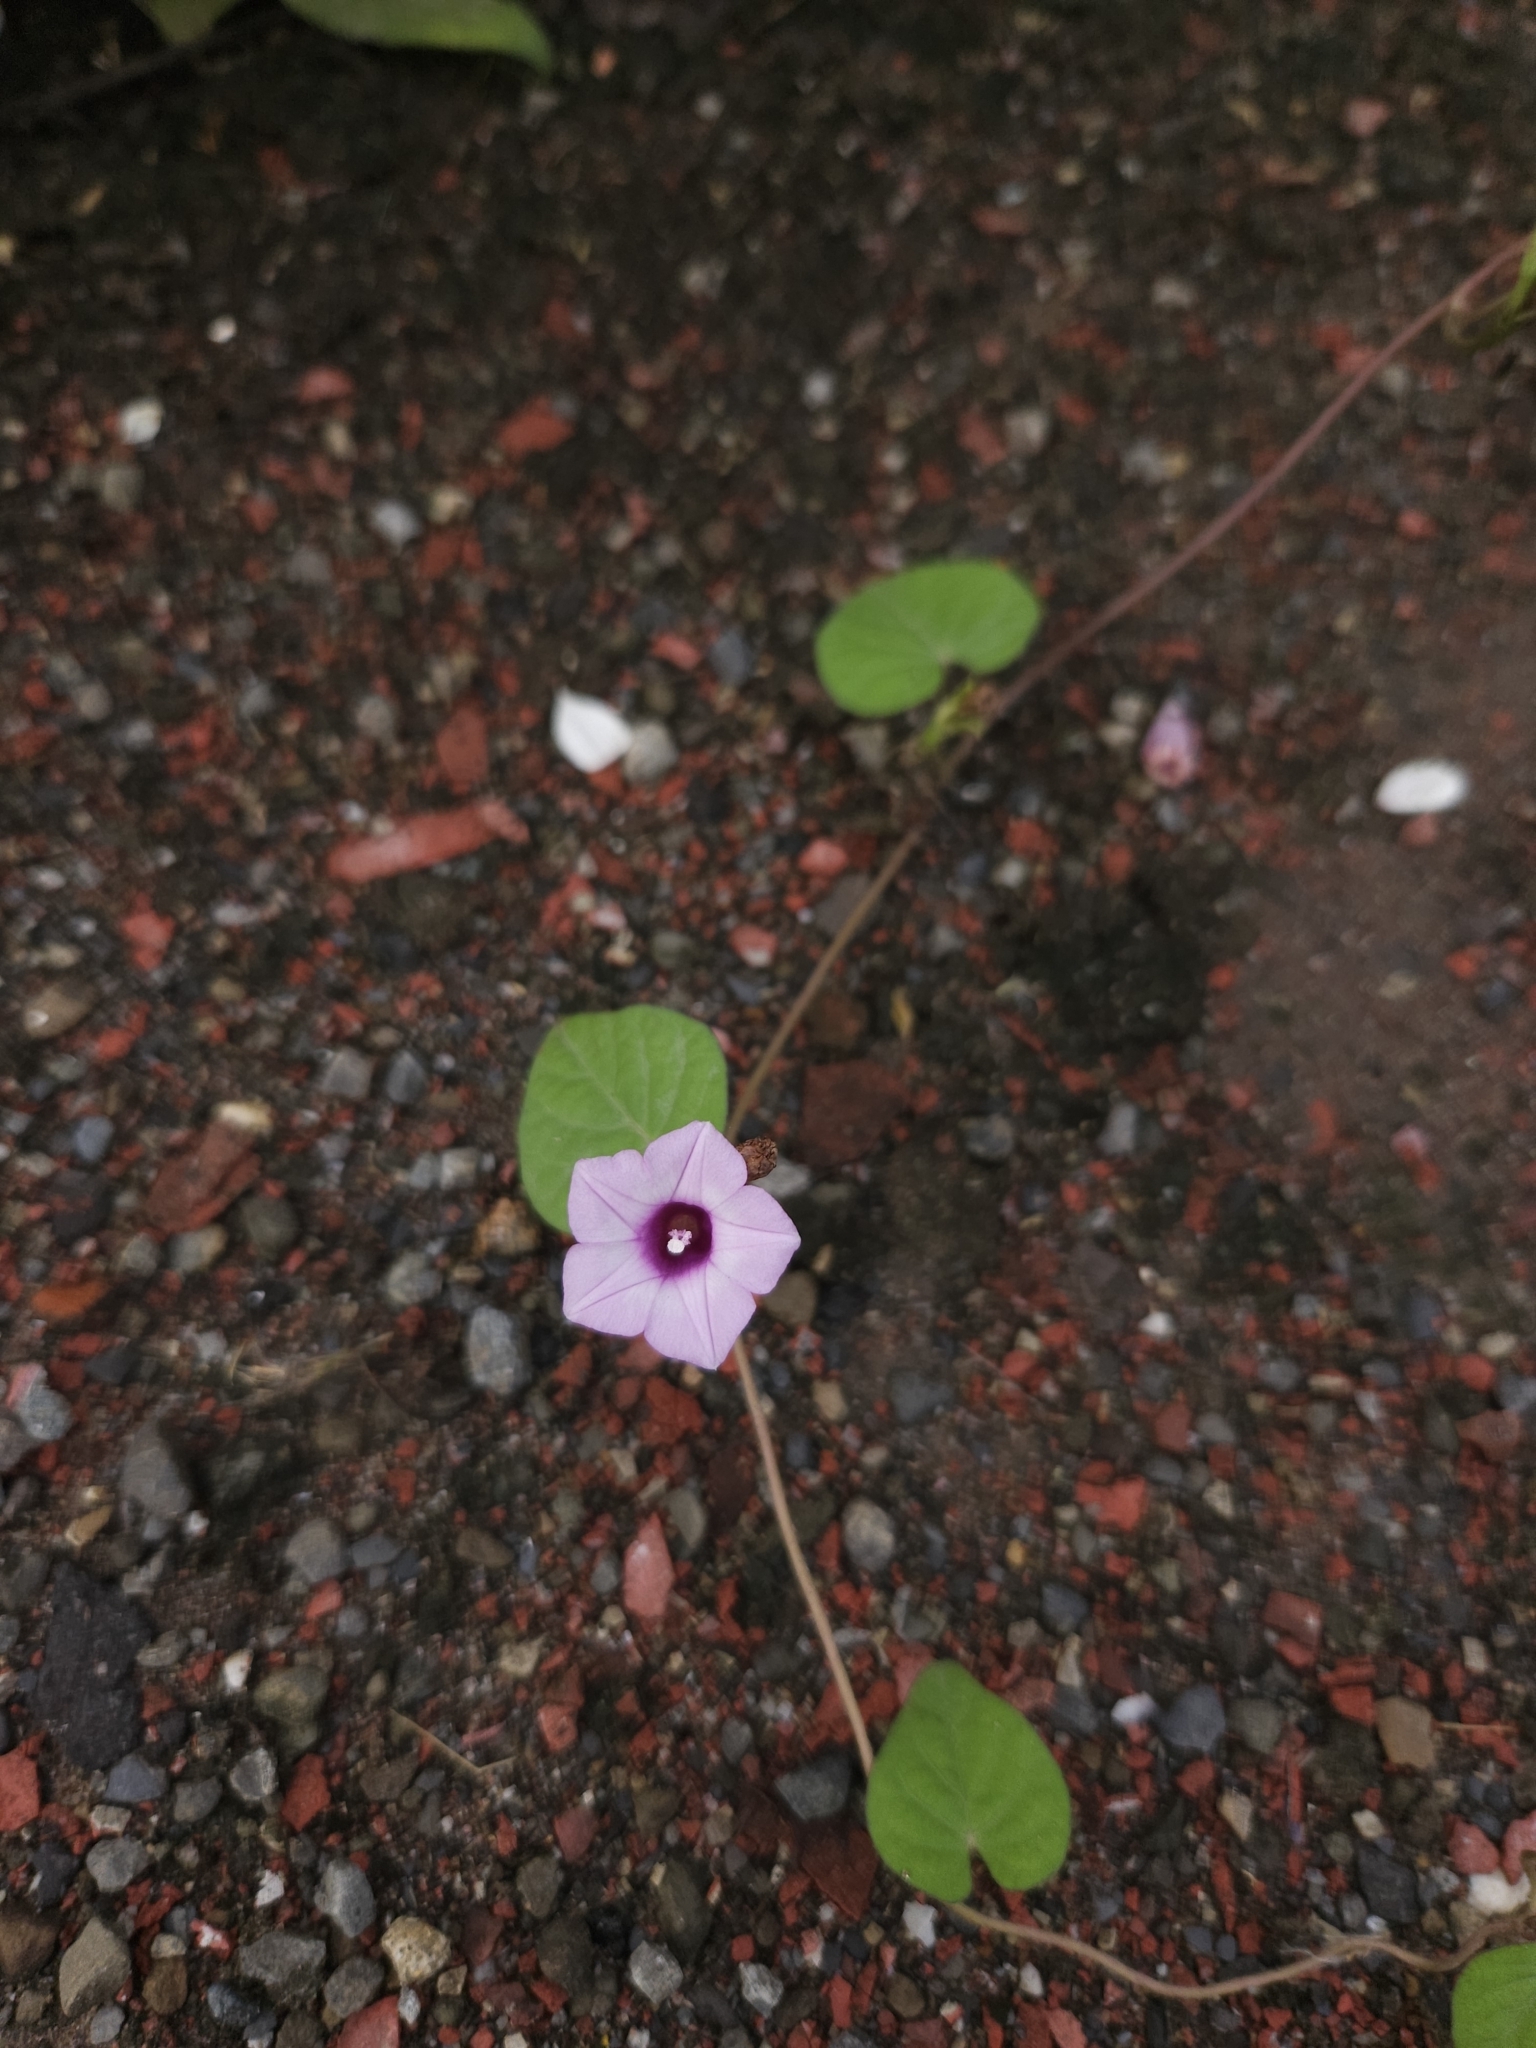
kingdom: Plantae
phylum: Tracheophyta
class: Magnoliopsida
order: Solanales
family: Convolvulaceae
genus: Ipomoea
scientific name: Ipomoea triloba
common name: Little-bell
